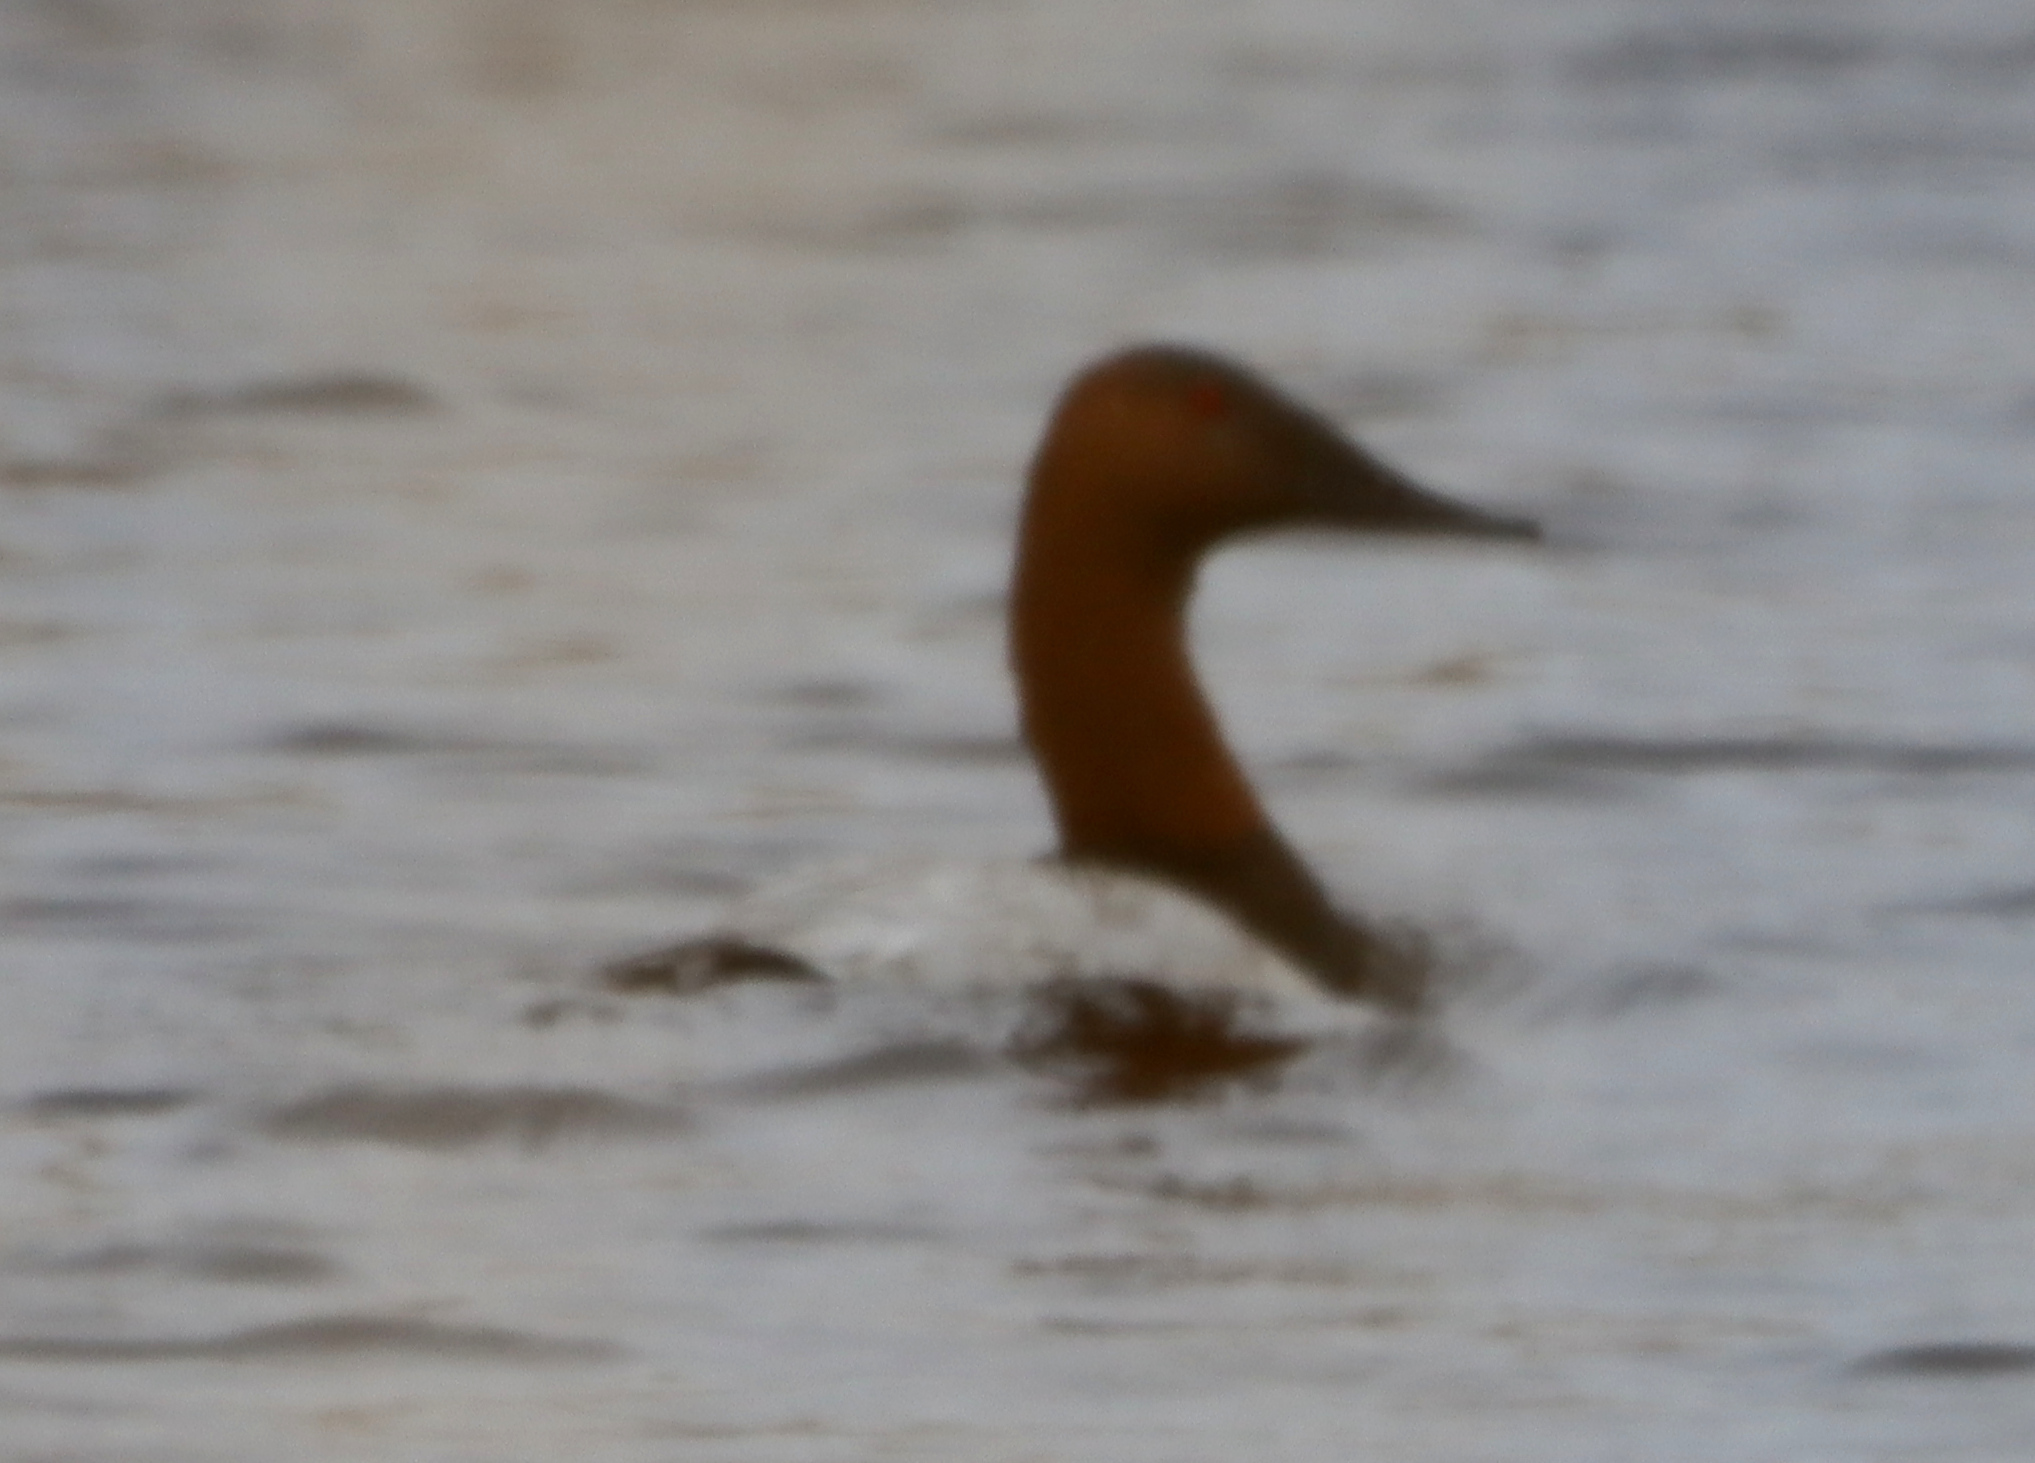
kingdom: Animalia
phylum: Chordata
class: Aves
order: Anseriformes
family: Anatidae
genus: Aythya
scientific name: Aythya valisineria
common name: Canvasback
